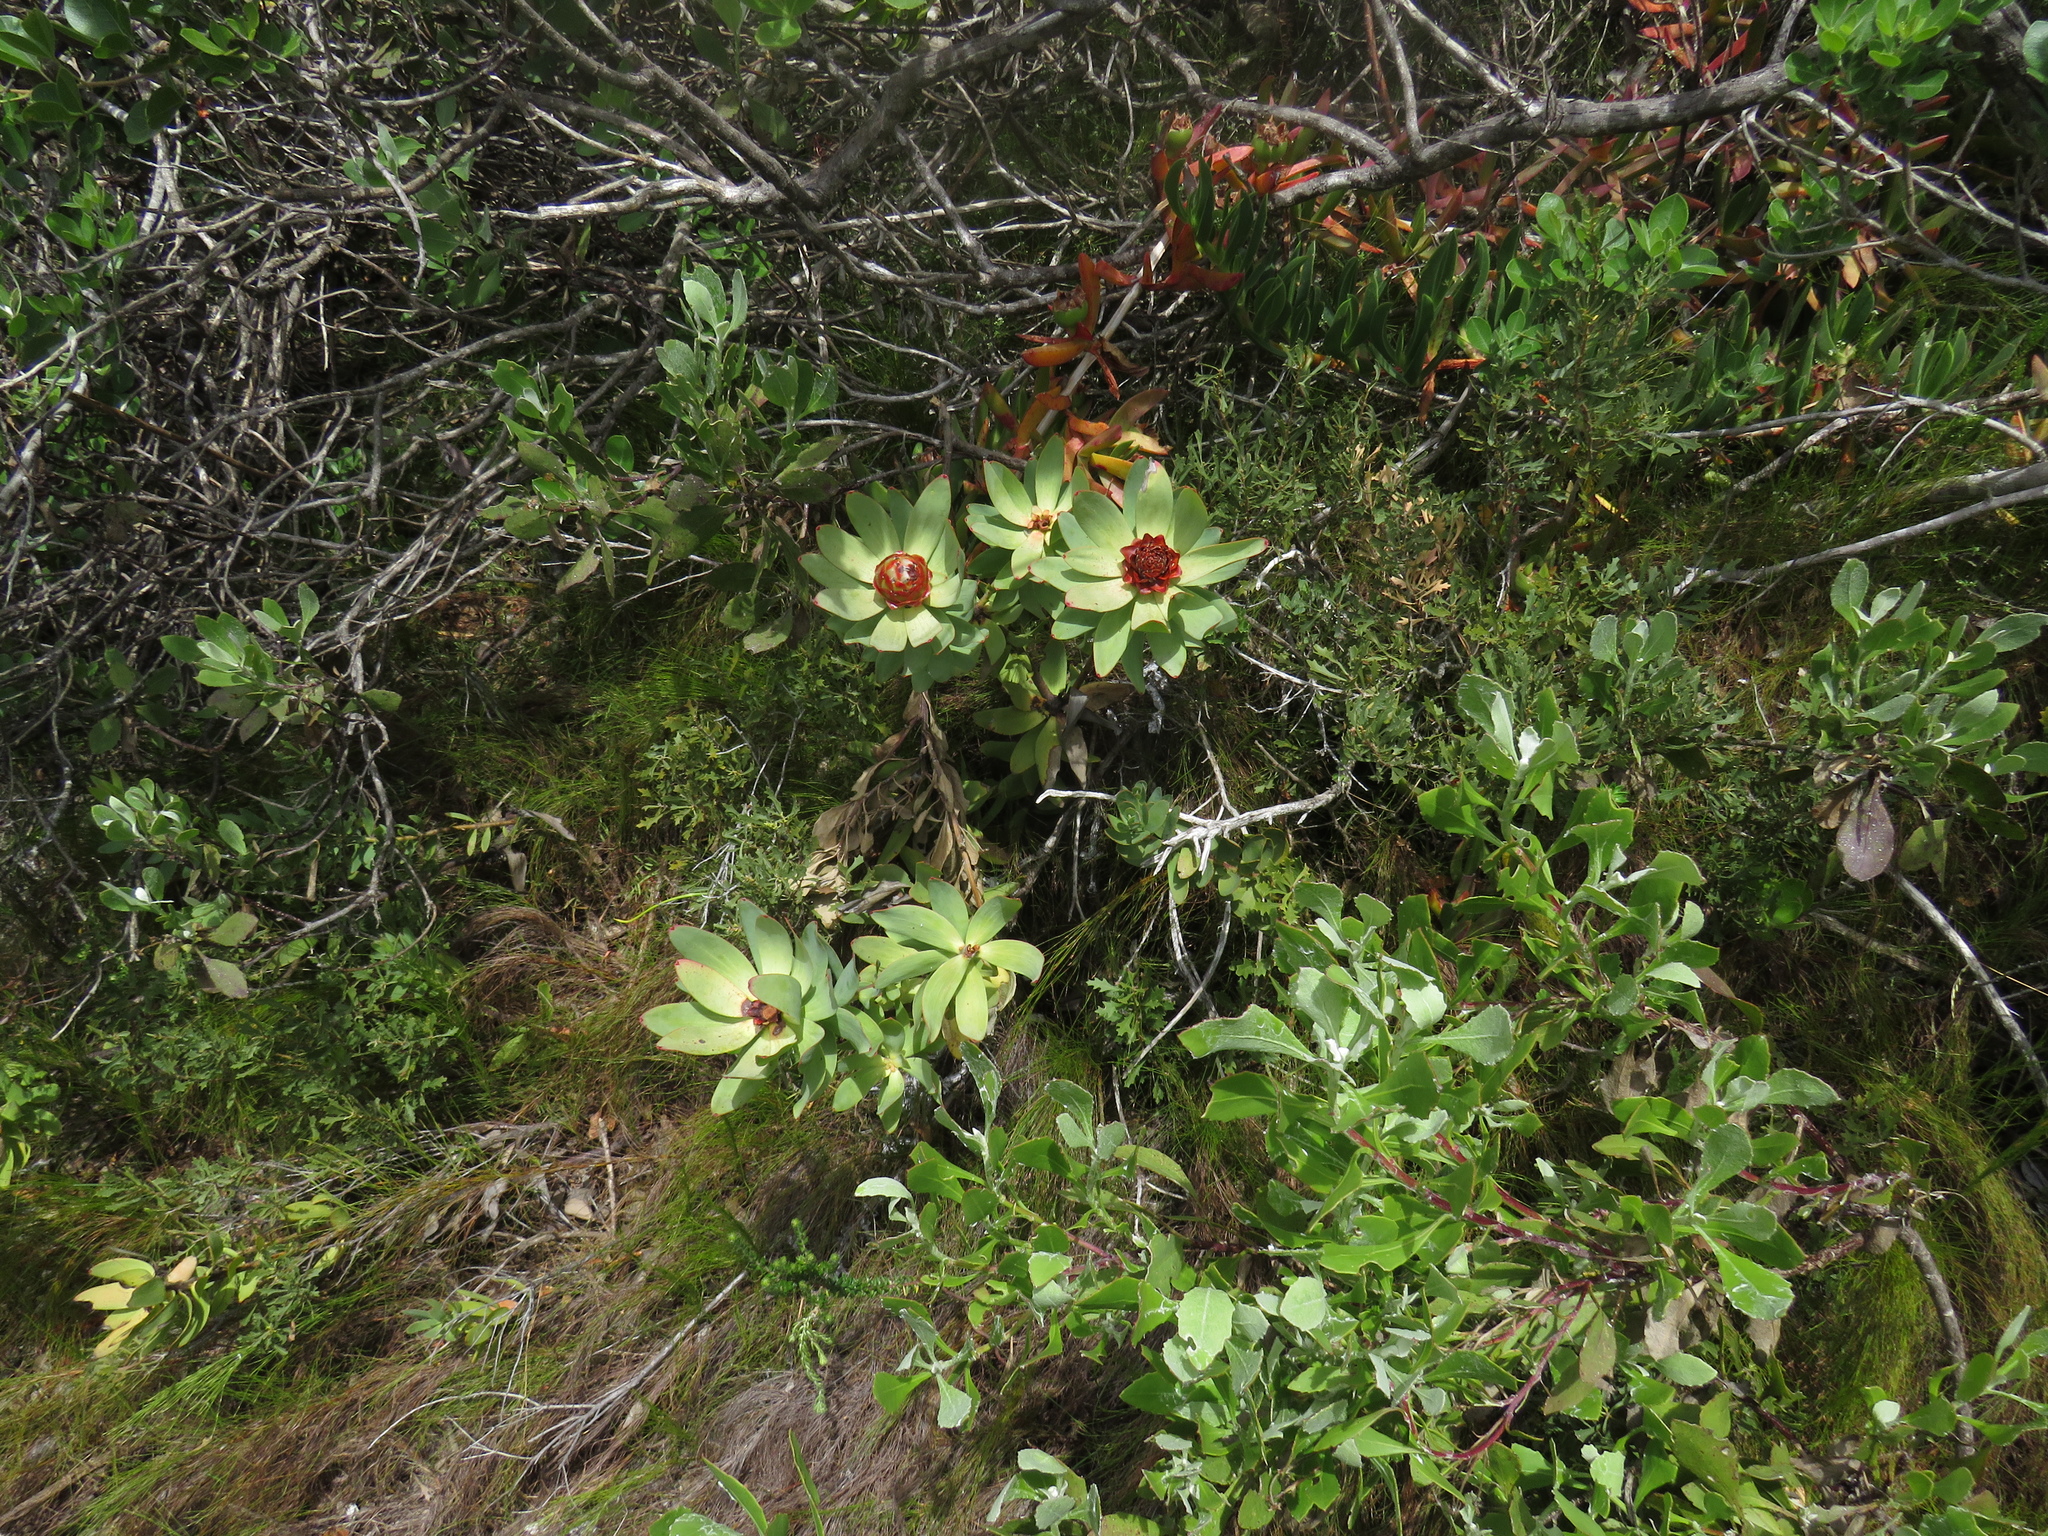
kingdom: Plantae
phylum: Tracheophyta
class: Magnoliopsida
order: Proteales
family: Proteaceae
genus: Leucadendron
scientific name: Leucadendron tinctum
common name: Spicy conebush
